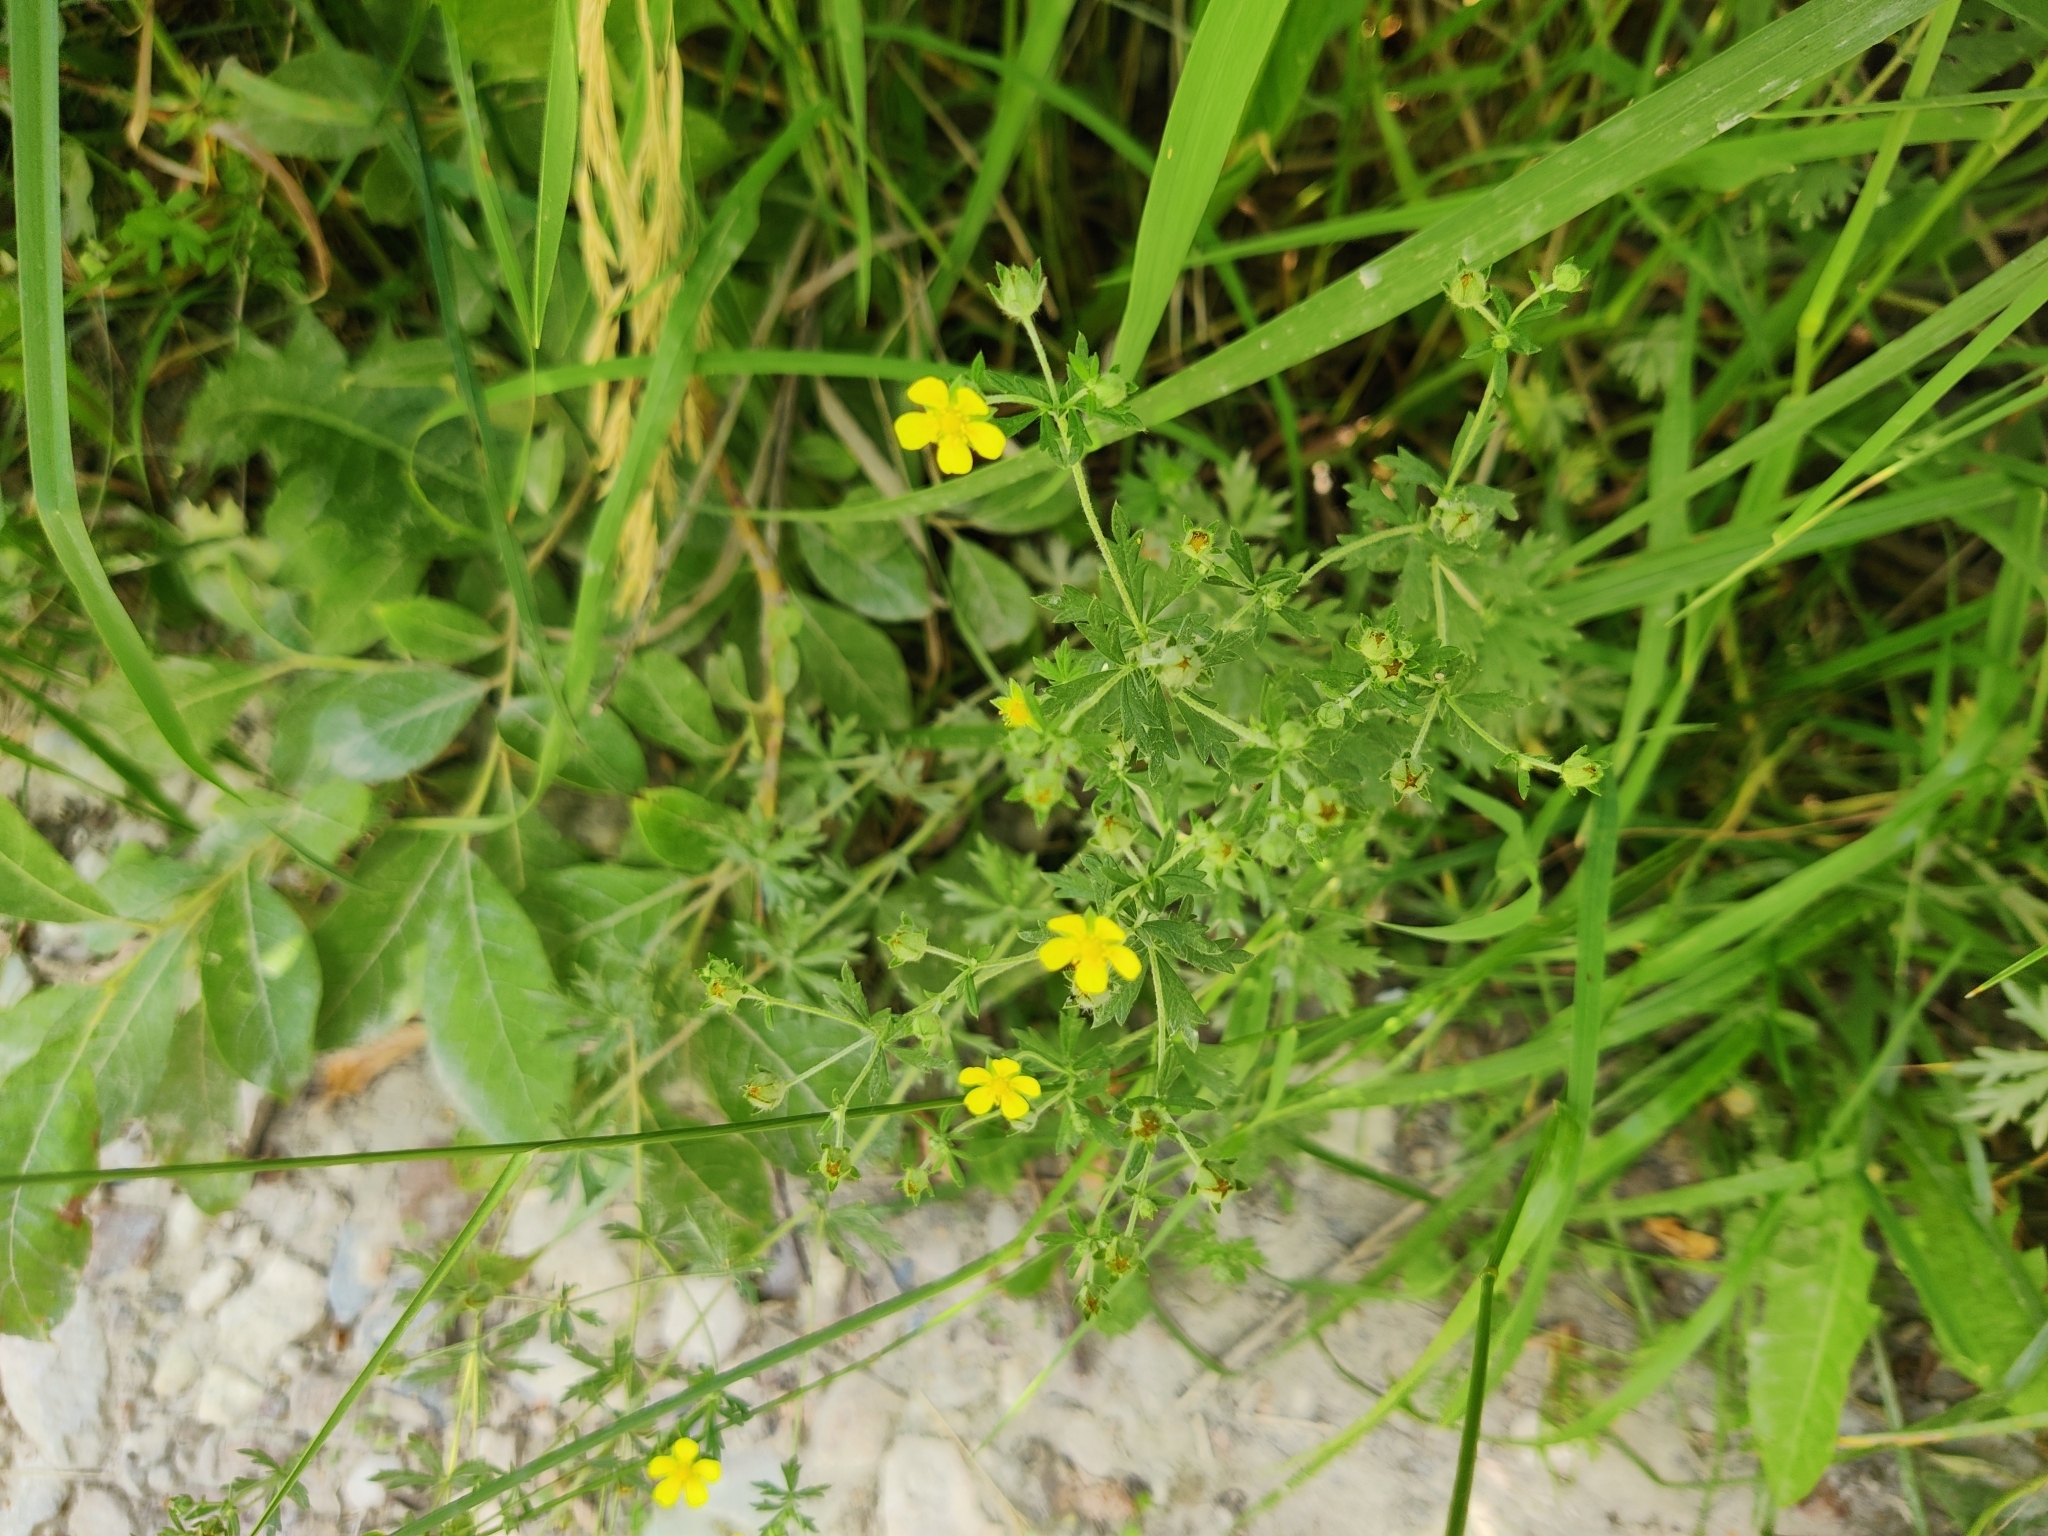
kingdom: Plantae
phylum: Tracheophyta
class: Magnoliopsida
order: Rosales
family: Rosaceae
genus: Potentilla
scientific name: Potentilla argentea
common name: Hoary cinquefoil
